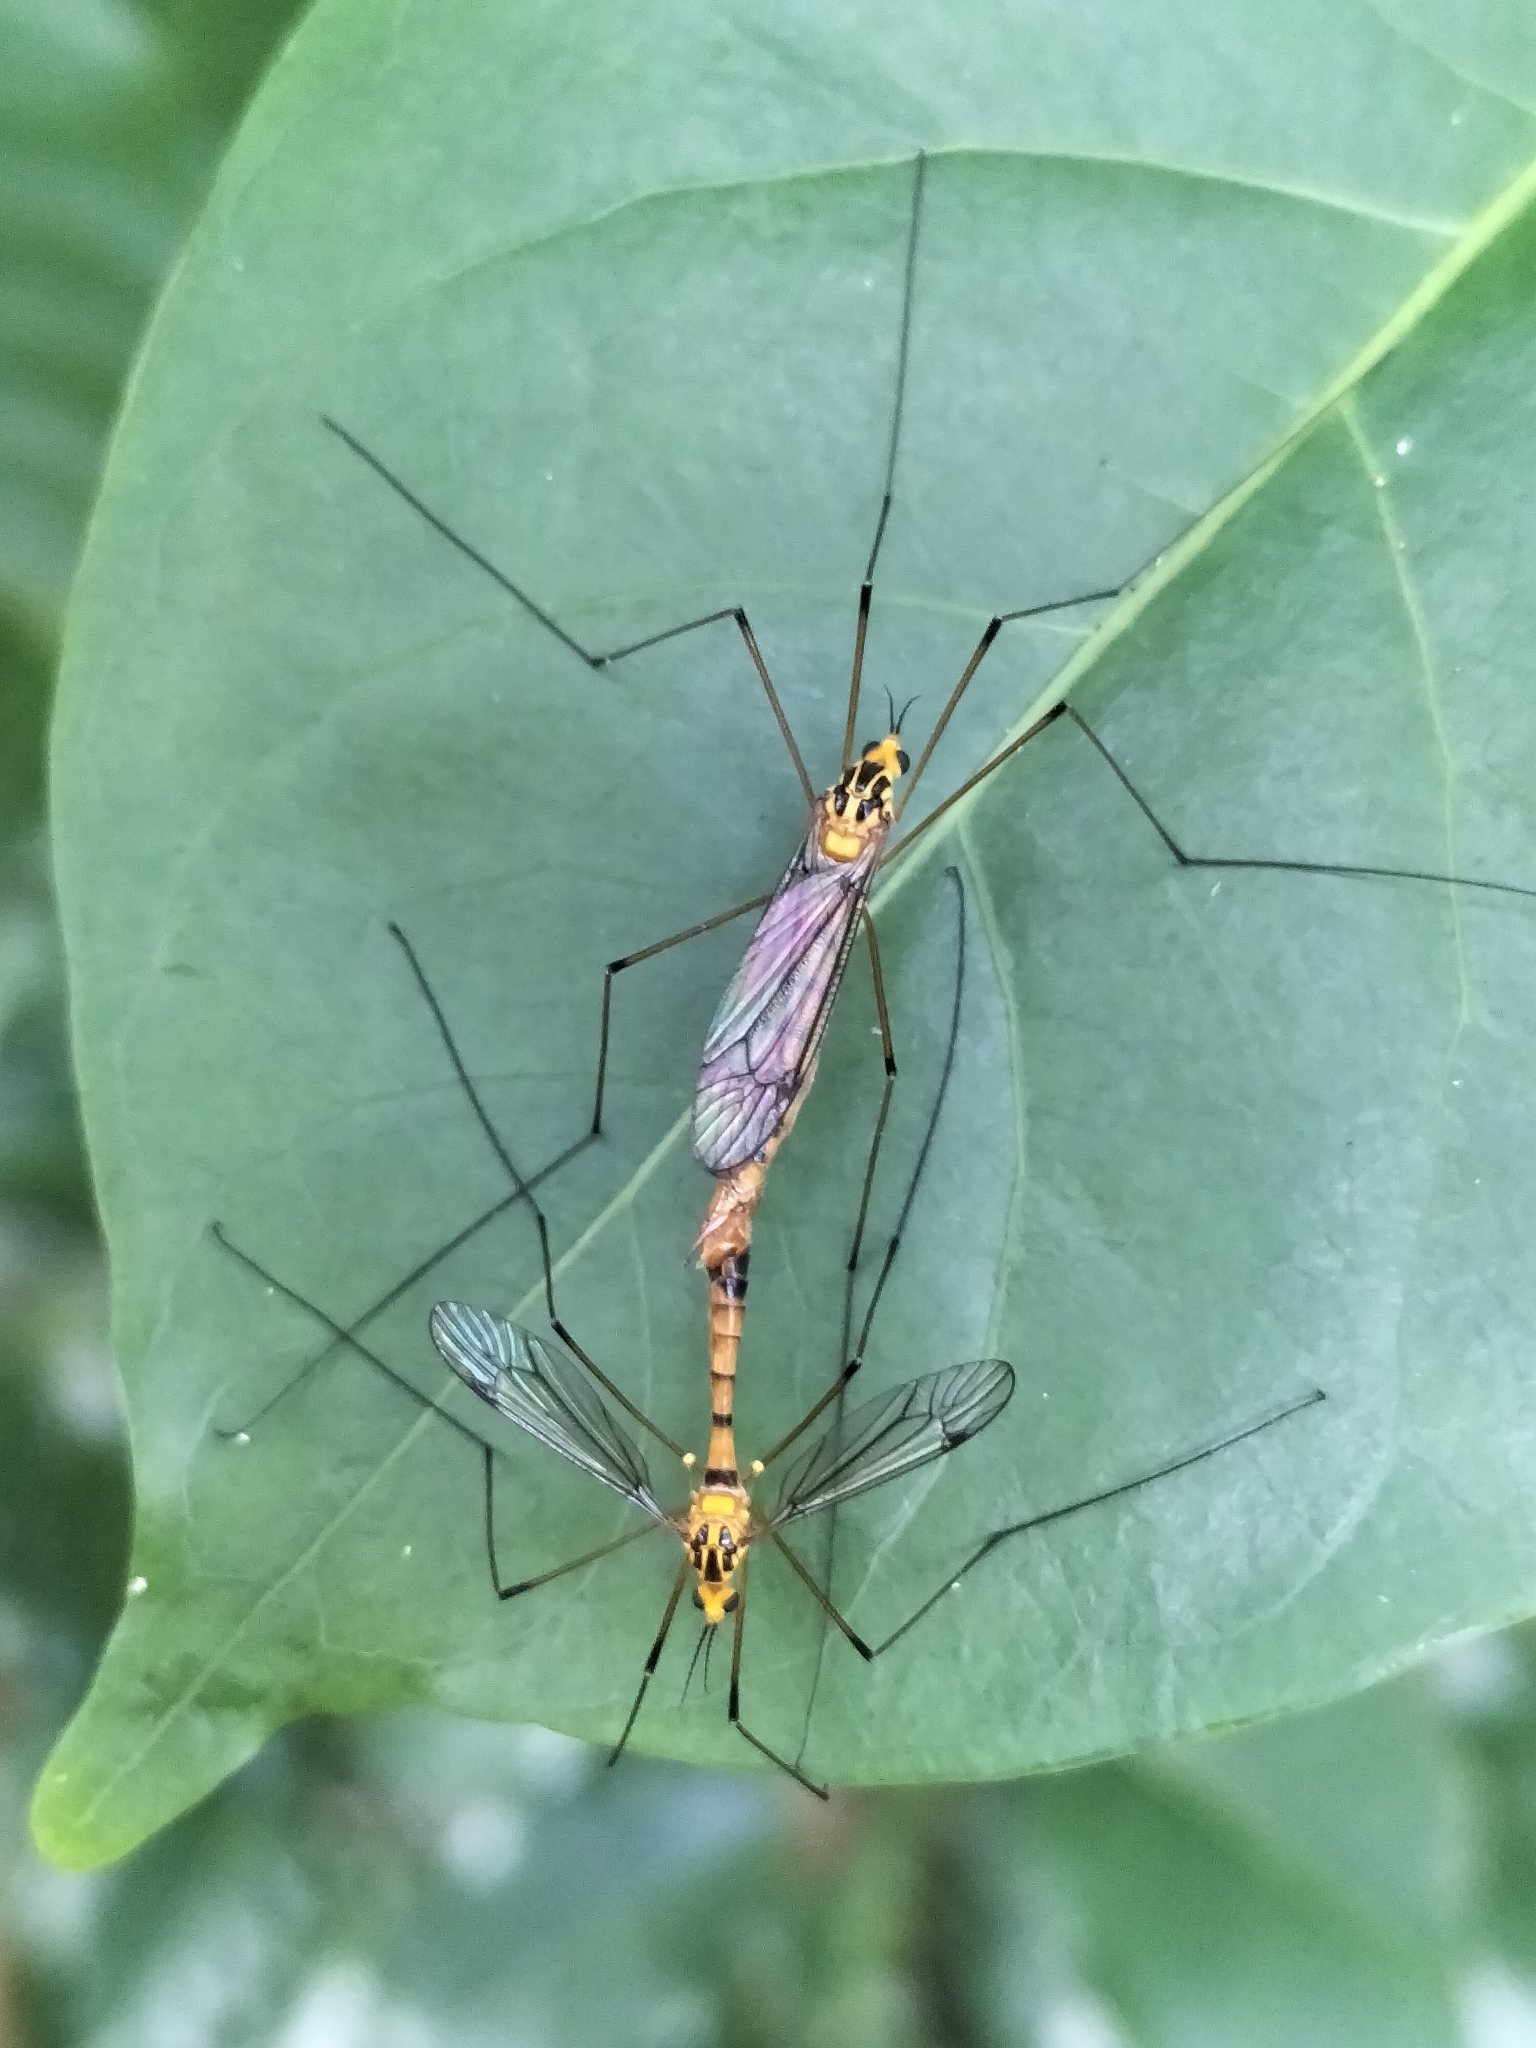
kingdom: Animalia
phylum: Arthropoda
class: Insecta
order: Diptera
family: Tipulidae
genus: Nephrotoma
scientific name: Nephrotoma australasiae
